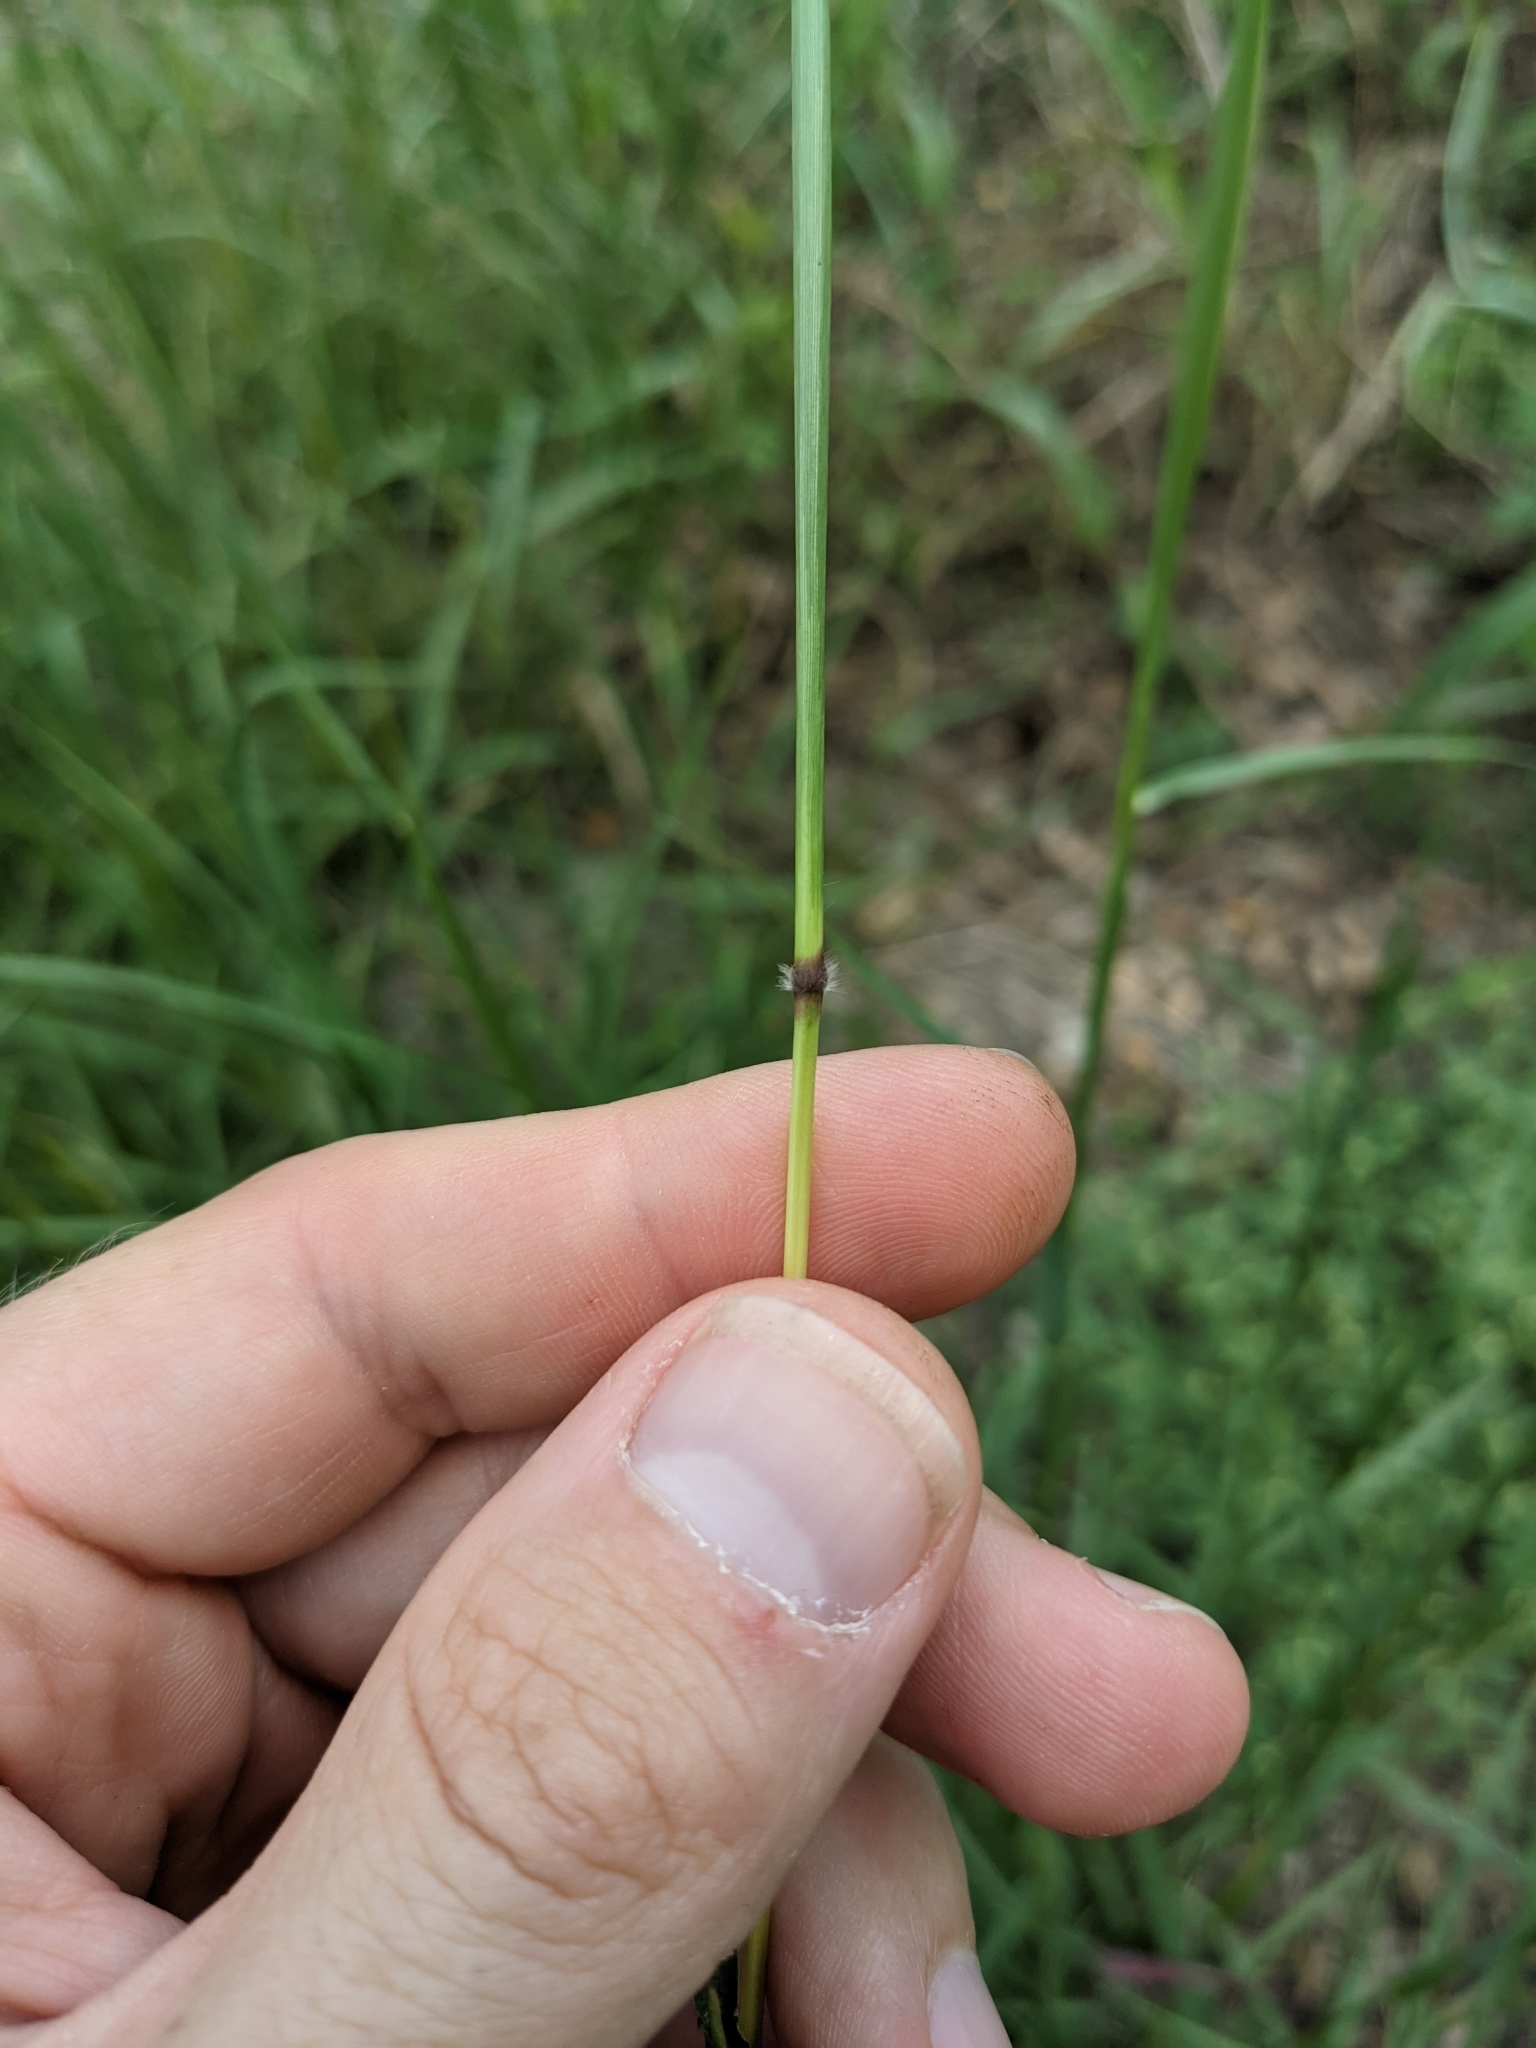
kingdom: Plantae
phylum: Tracheophyta
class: Liliopsida
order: Poales
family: Poaceae
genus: Bothriochloa
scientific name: Bothriochloa bladhii
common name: Caucasian bluestem
